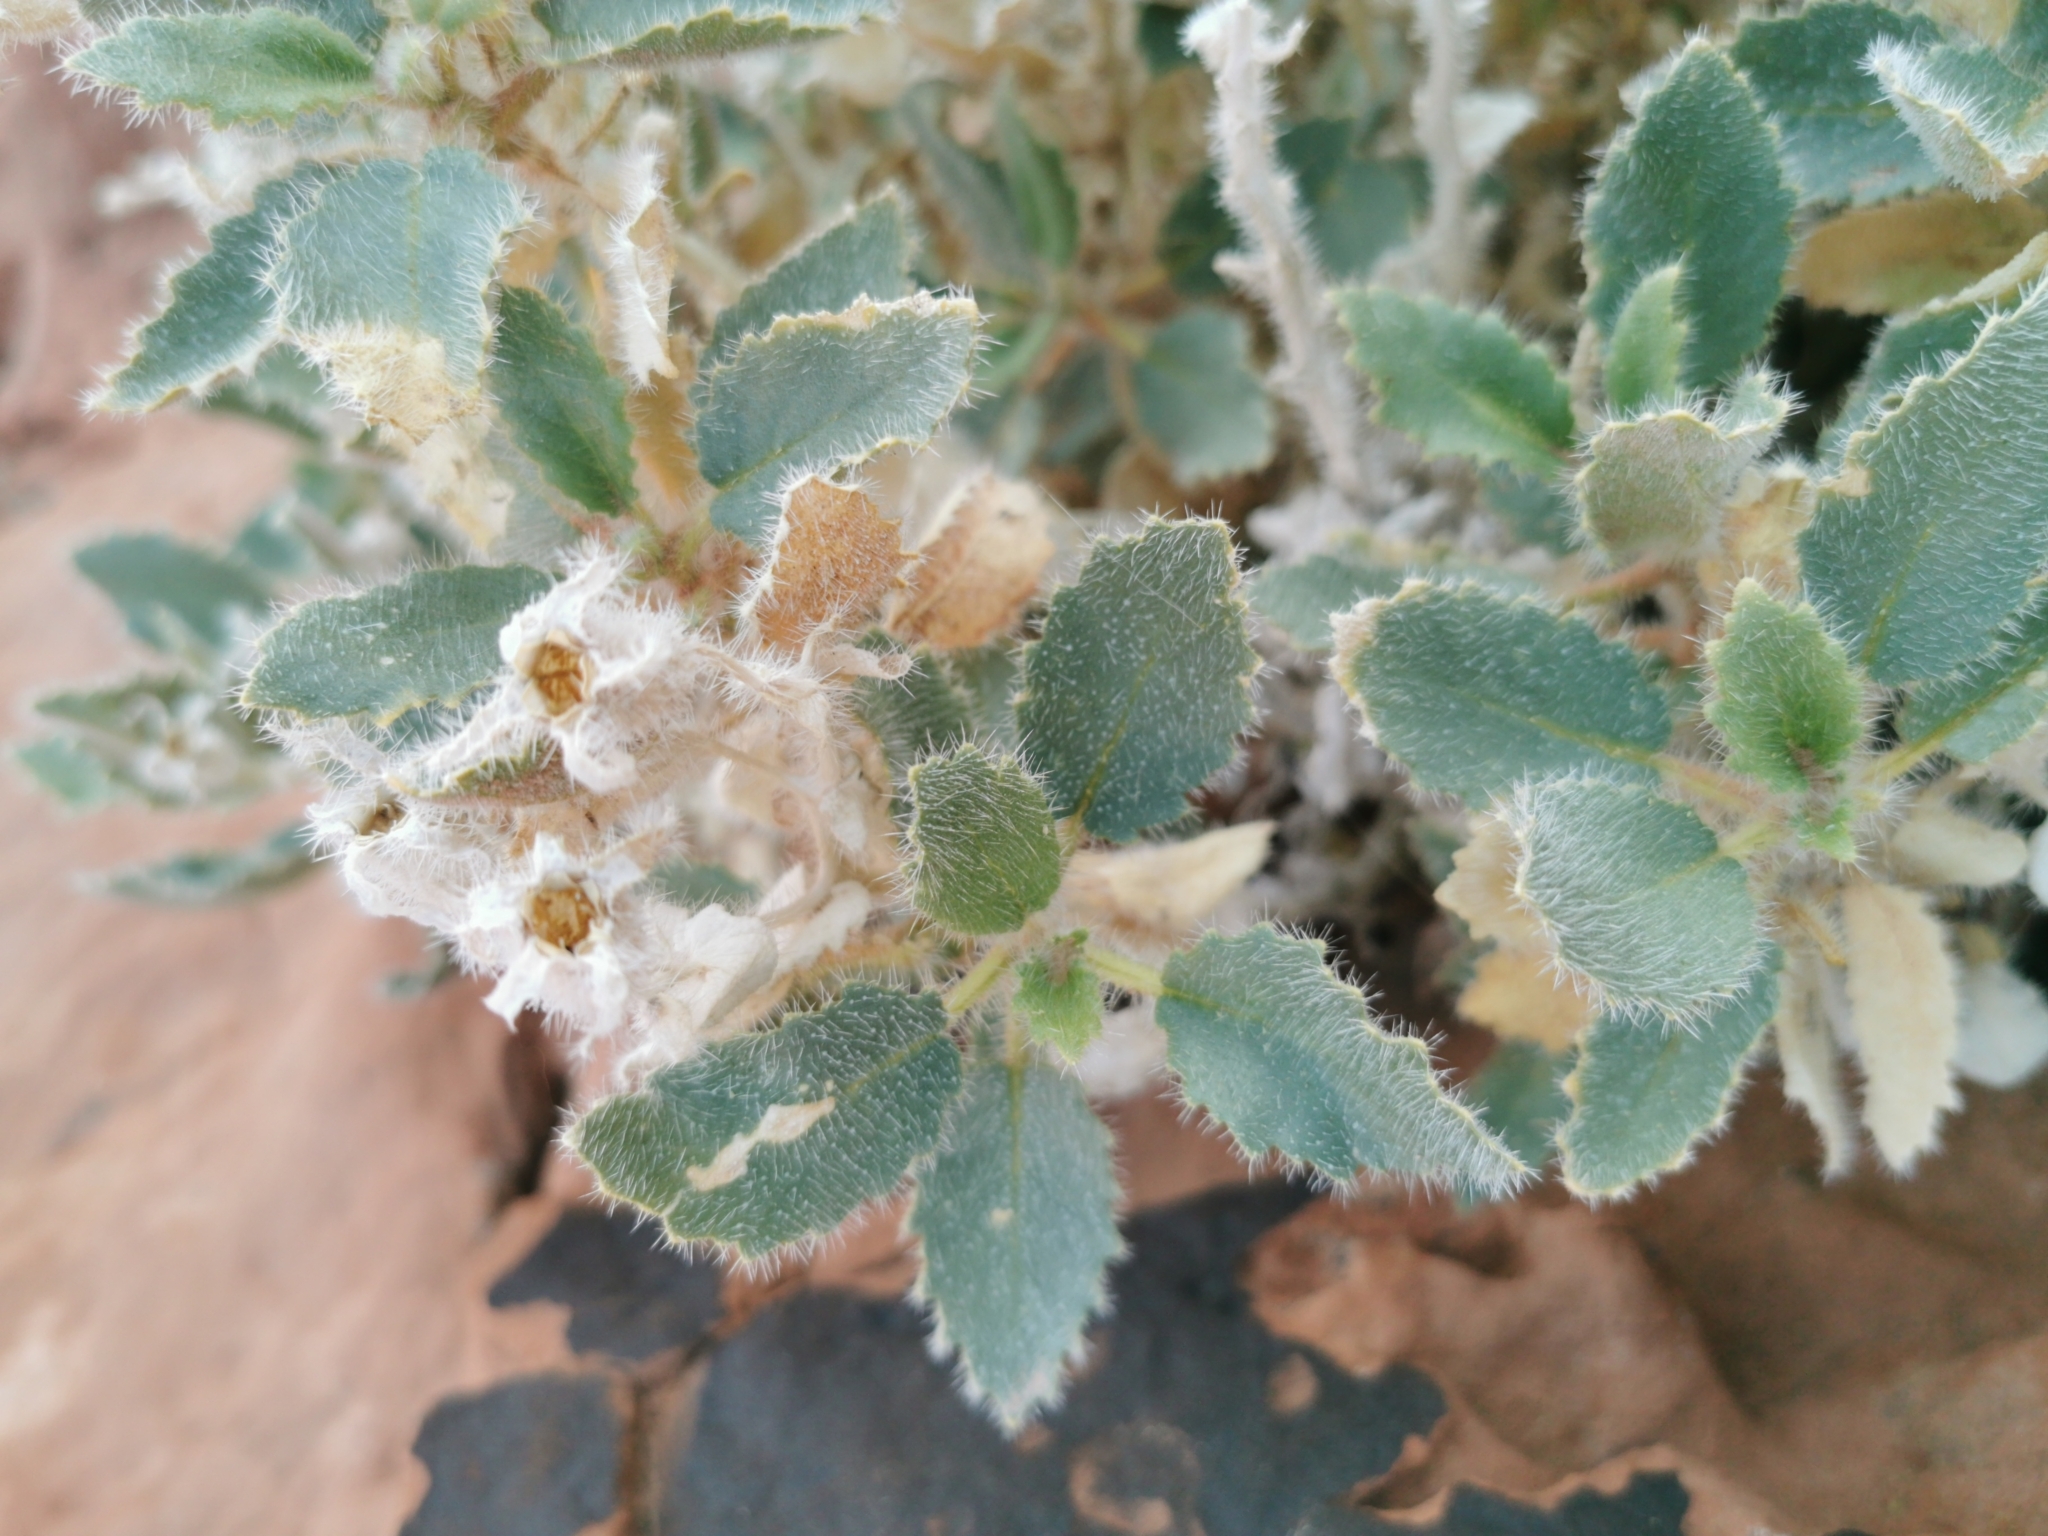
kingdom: Plantae
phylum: Tracheophyta
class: Magnoliopsida
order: Cornales
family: Loasaceae
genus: Eucnide
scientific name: Eucnide urens
